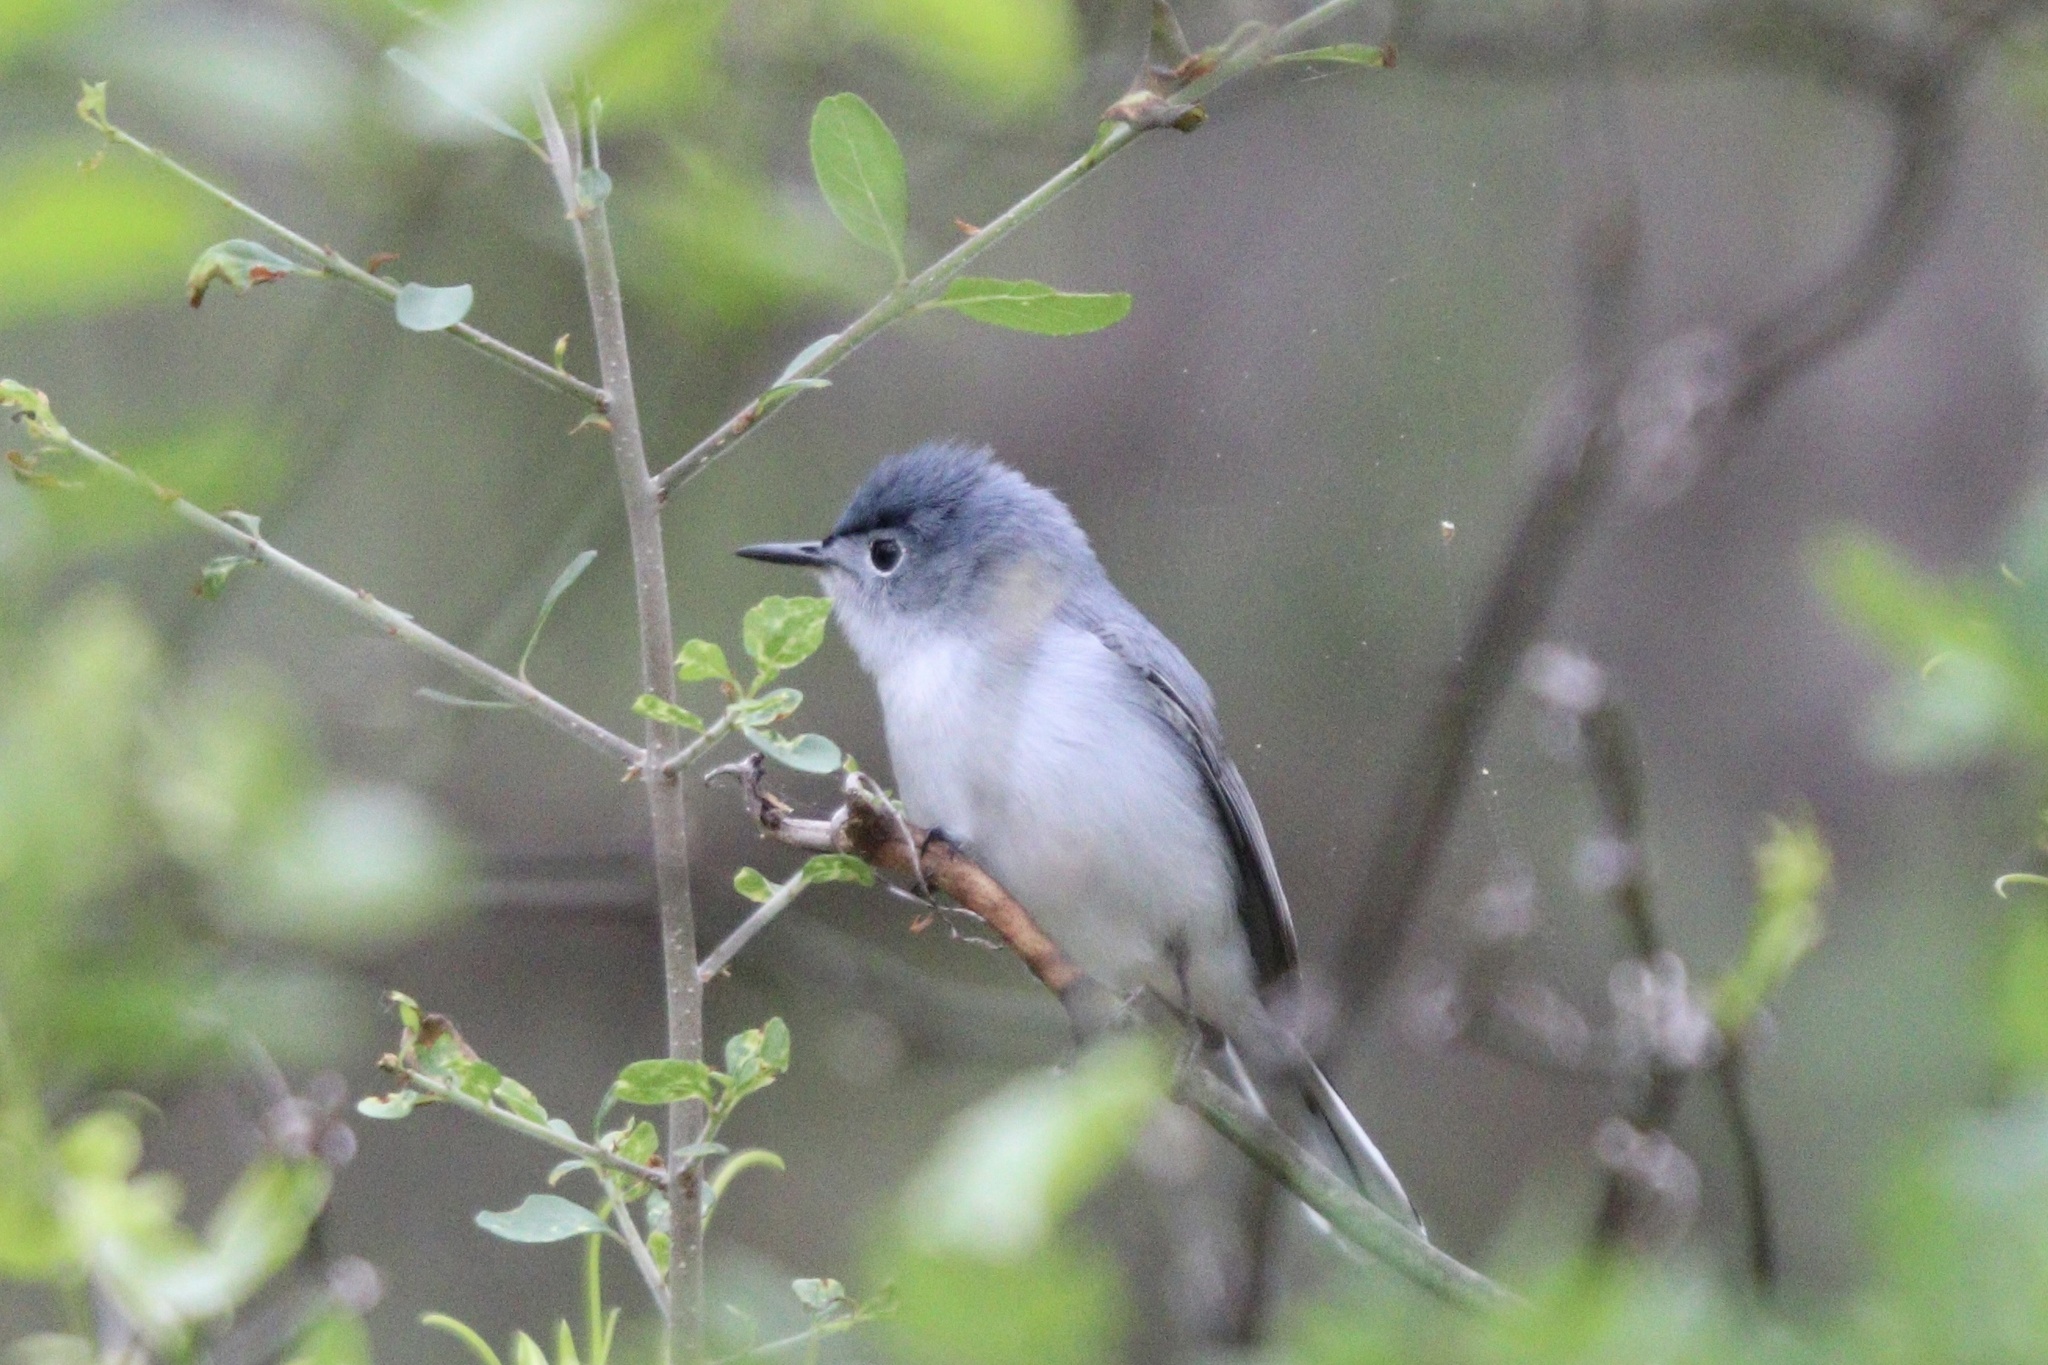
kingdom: Animalia
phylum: Chordata
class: Aves
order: Passeriformes
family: Polioptilidae
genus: Polioptila
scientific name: Polioptila caerulea
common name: Blue-gray gnatcatcher
